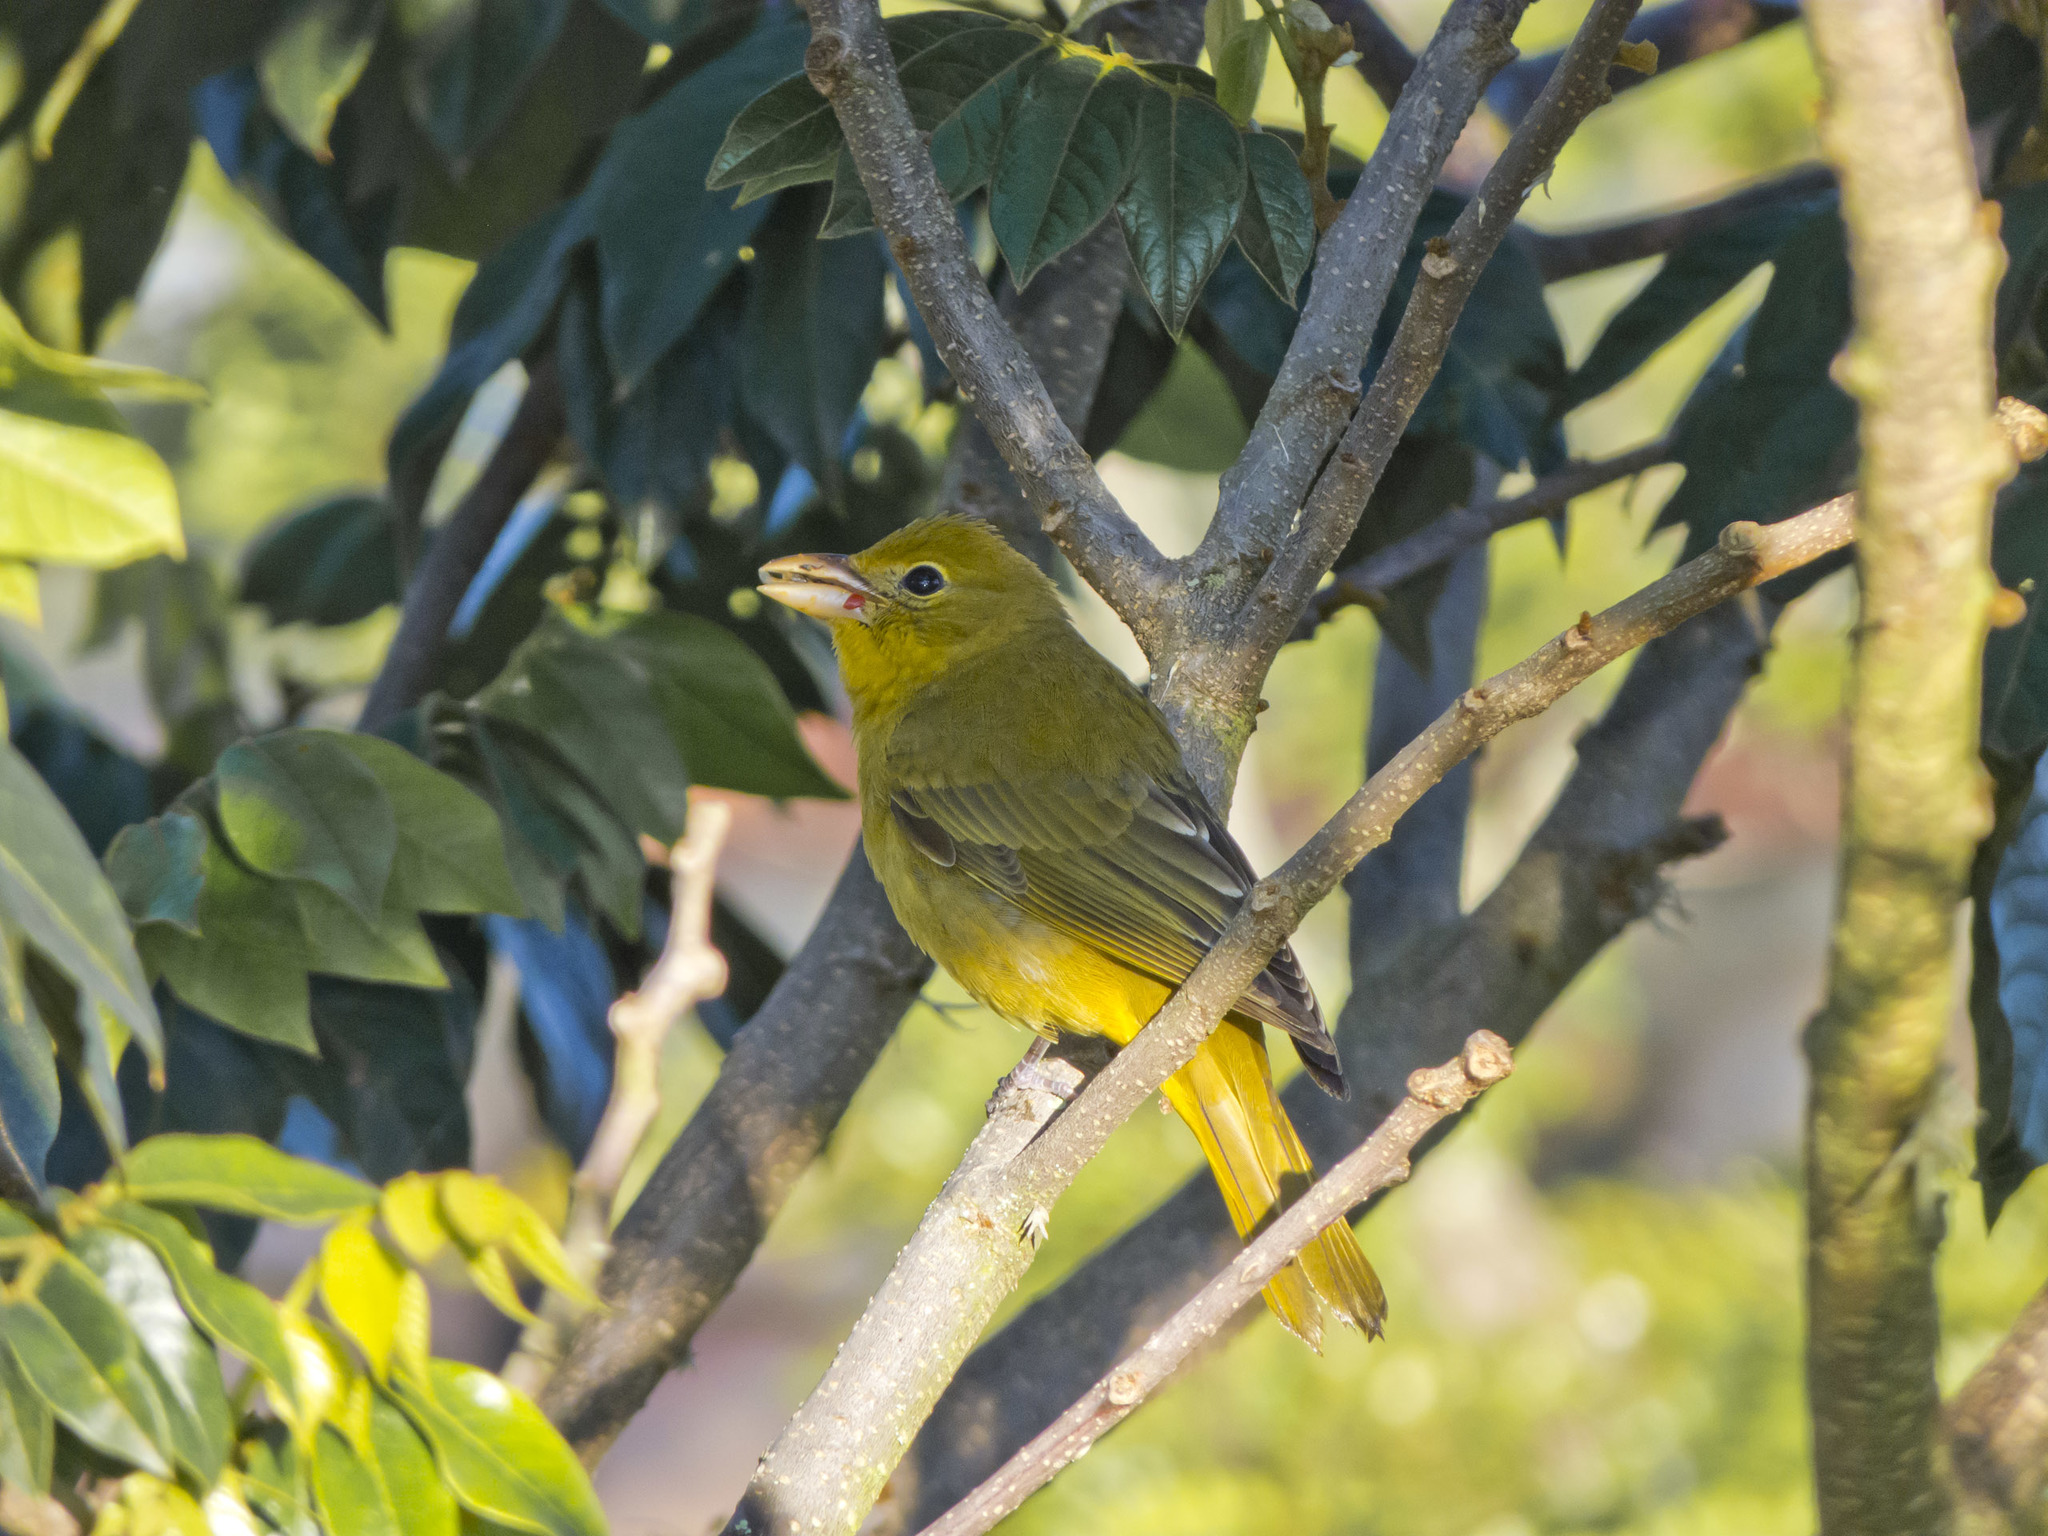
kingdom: Animalia
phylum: Chordata
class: Aves
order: Passeriformes
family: Cardinalidae
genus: Piranga
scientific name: Piranga rubra
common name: Summer tanager
